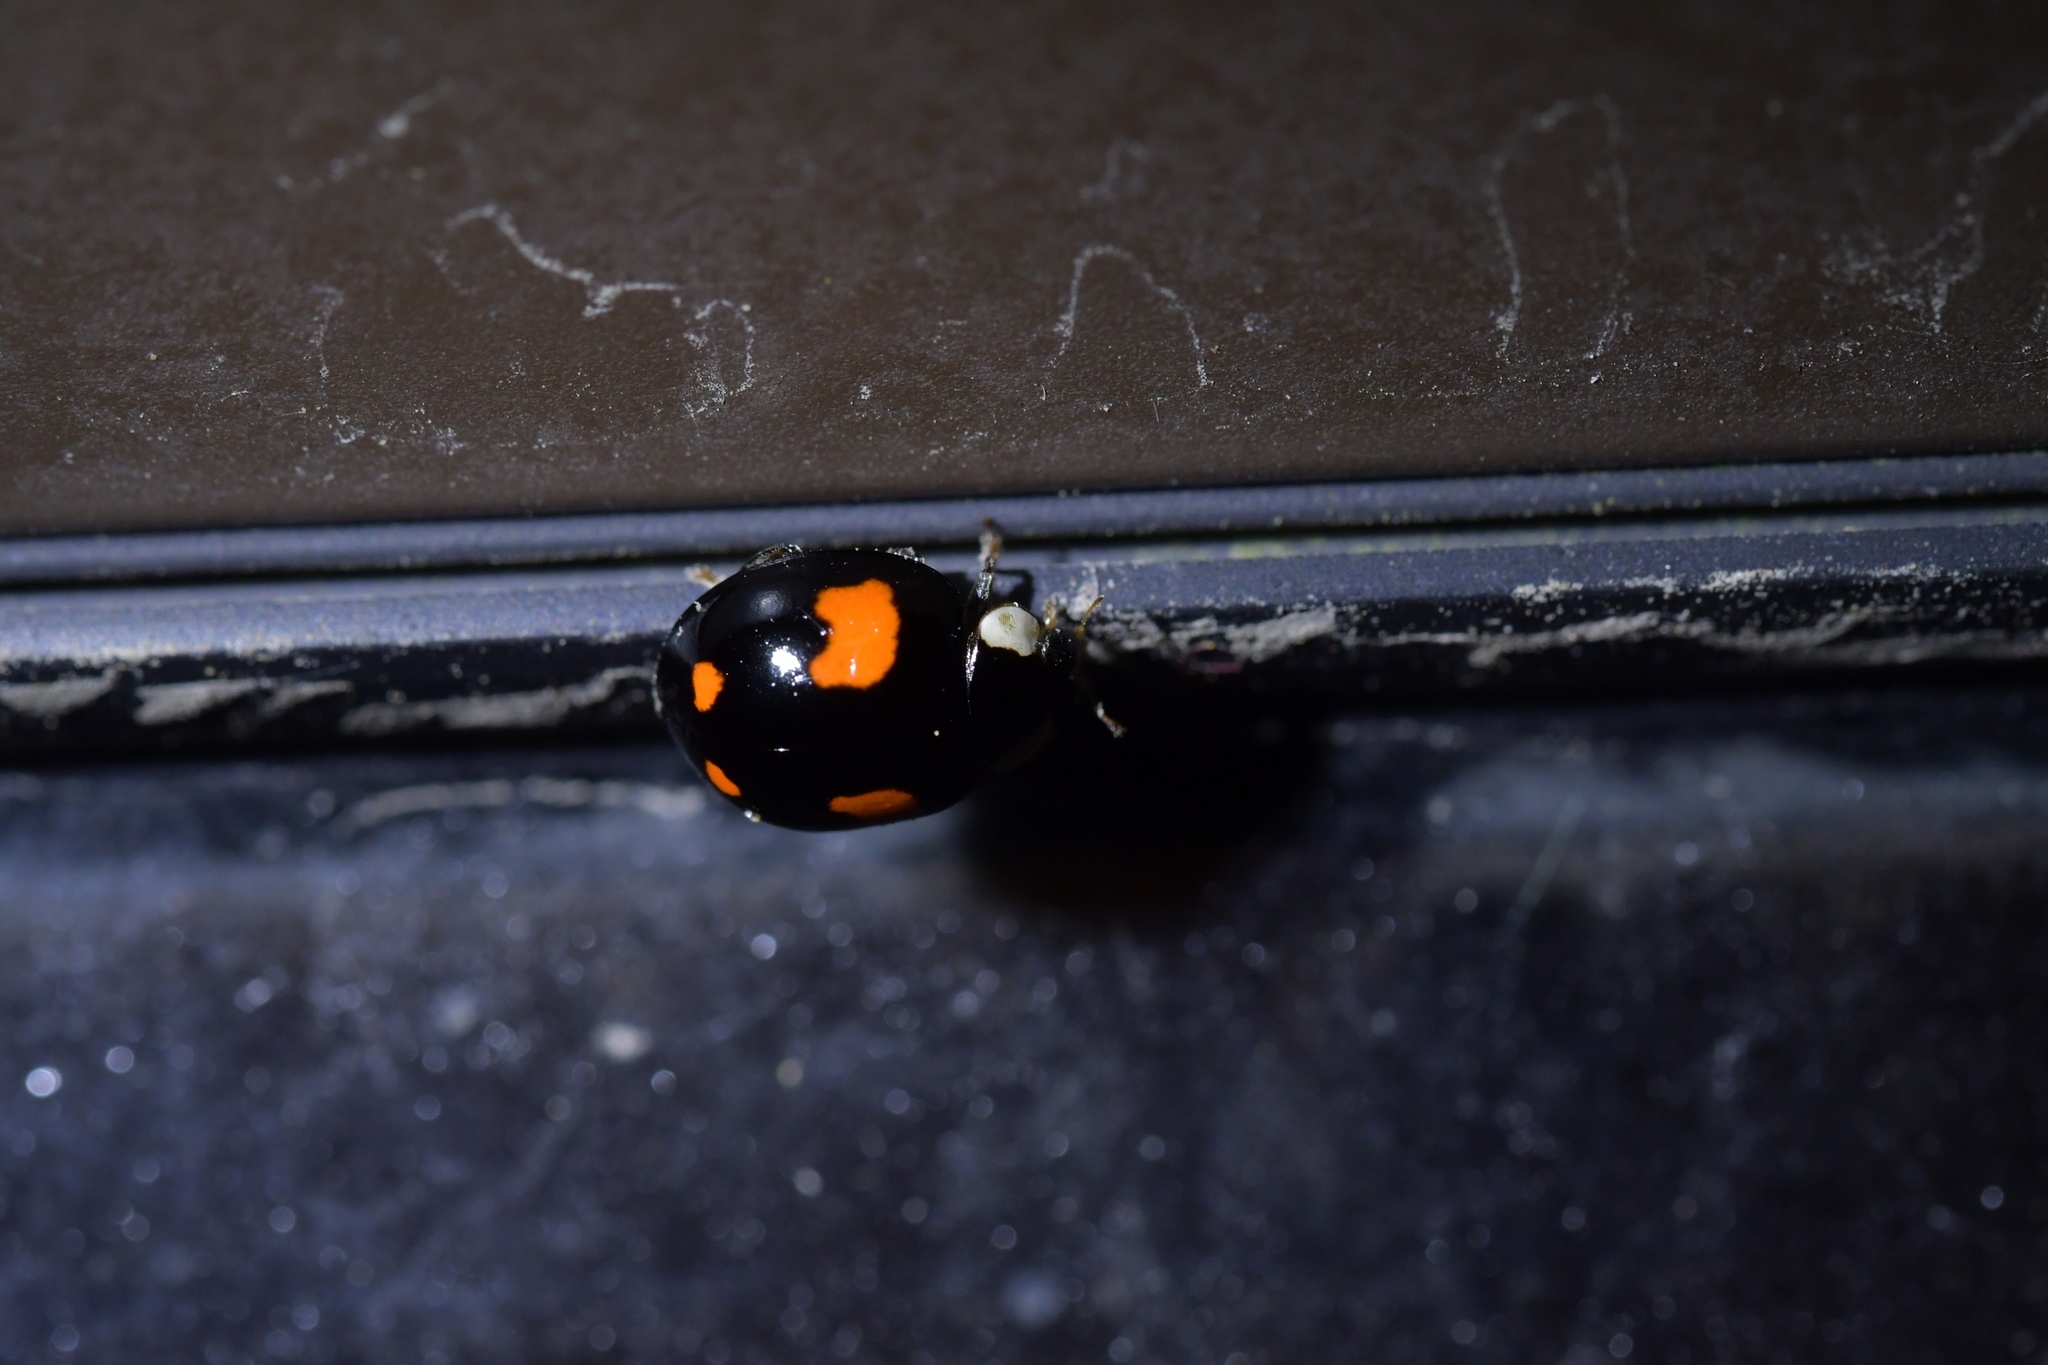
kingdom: Animalia
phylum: Arthropoda
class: Insecta
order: Coleoptera
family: Coccinellidae
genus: Harmonia
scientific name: Harmonia axyridis
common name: Harlequin ladybird
